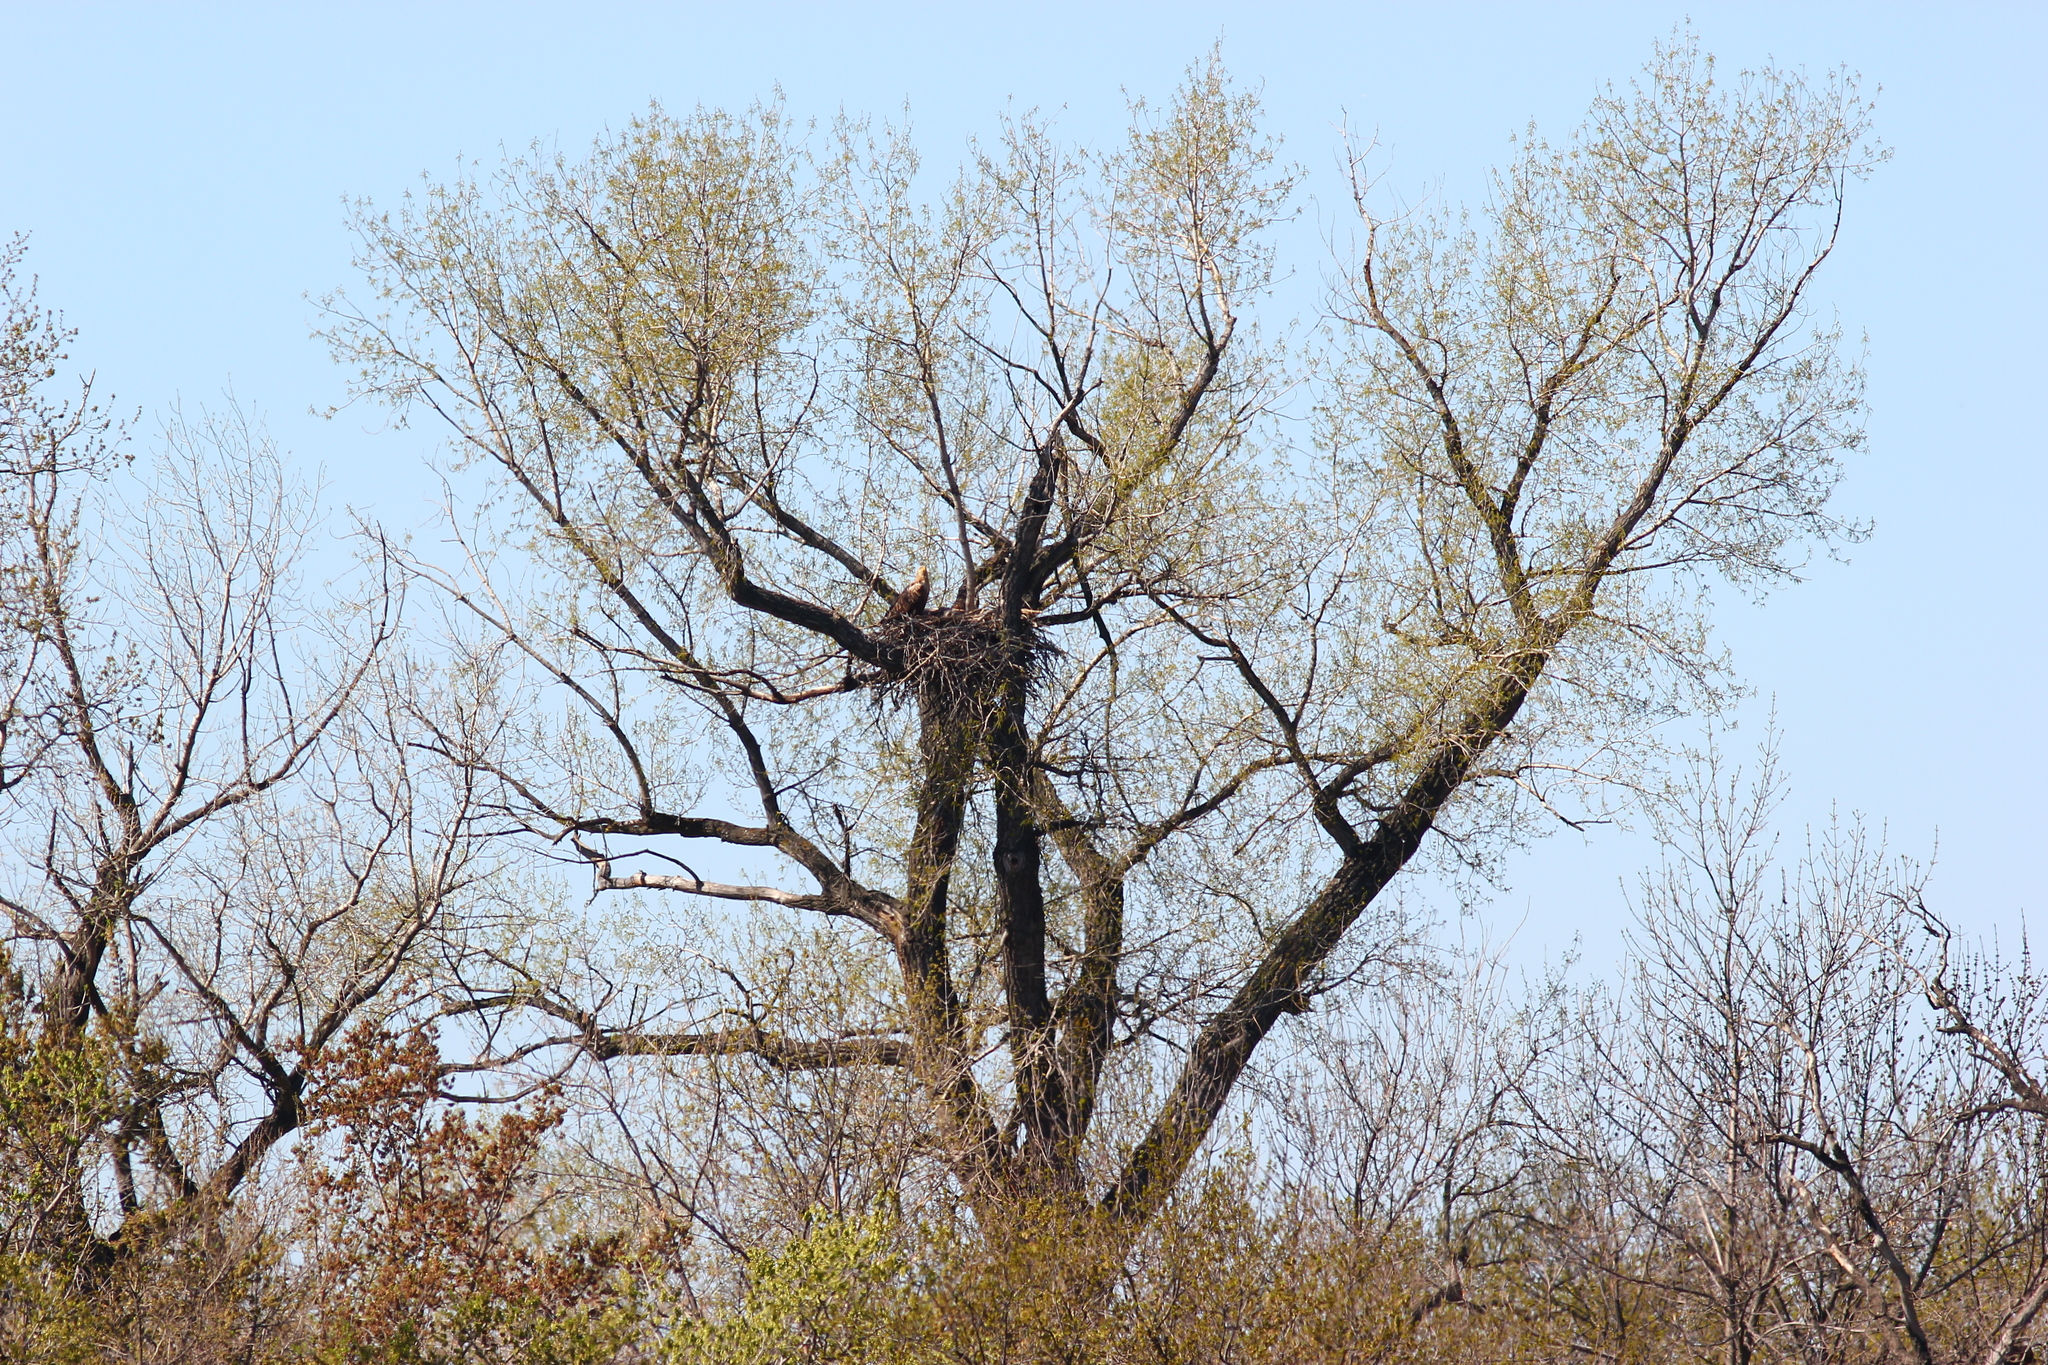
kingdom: Animalia
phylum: Chordata
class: Aves
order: Accipitriformes
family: Accipitridae
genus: Haliaeetus
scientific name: Haliaeetus albicilla
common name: White-tailed eagle
